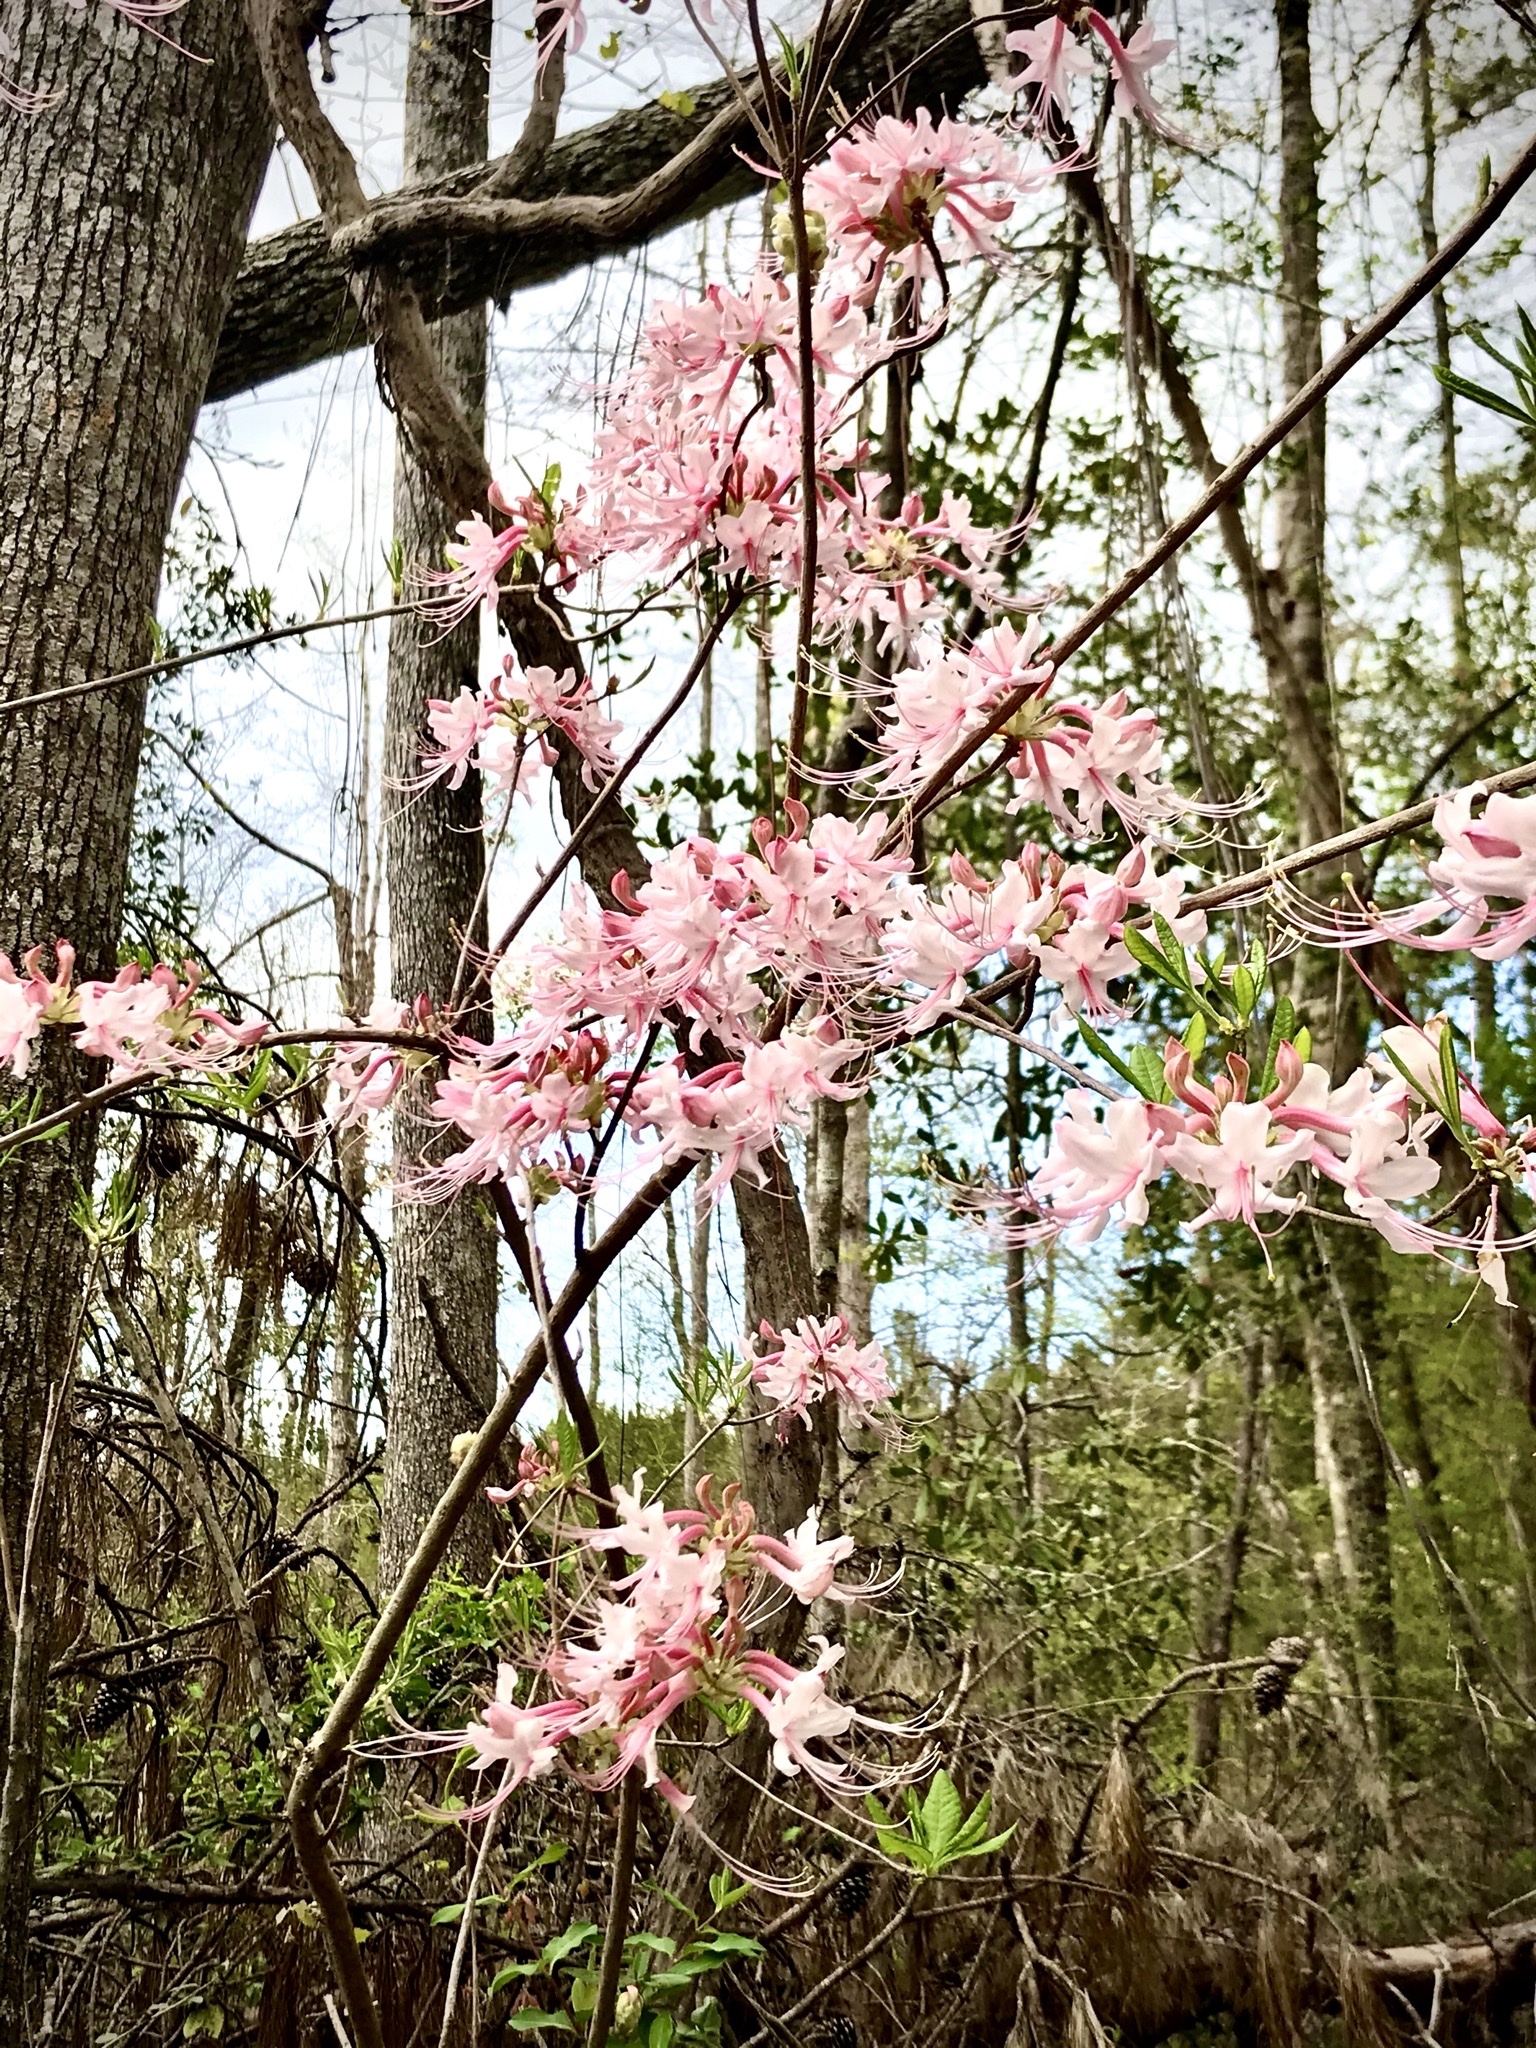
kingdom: Plantae
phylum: Tracheophyta
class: Magnoliopsida
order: Ericales
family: Ericaceae
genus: Rhododendron
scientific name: Rhododendron canescens
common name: Mountain azalea
